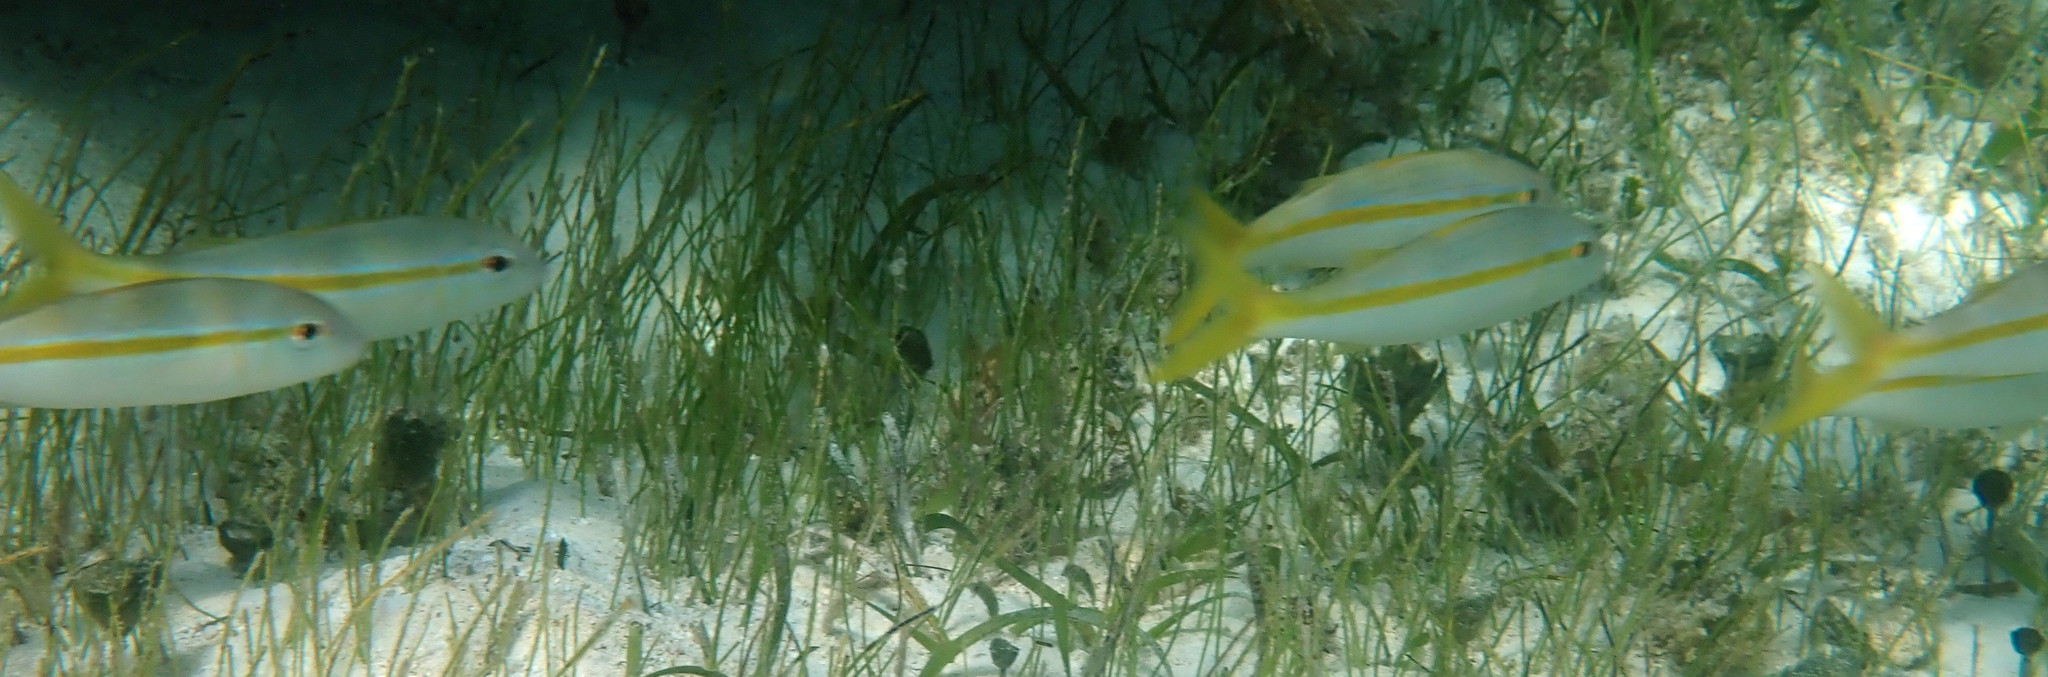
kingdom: Animalia
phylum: Chordata
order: Perciformes
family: Lutjanidae
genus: Ocyurus
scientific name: Ocyurus chrysurus
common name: Yellowtail snapper
